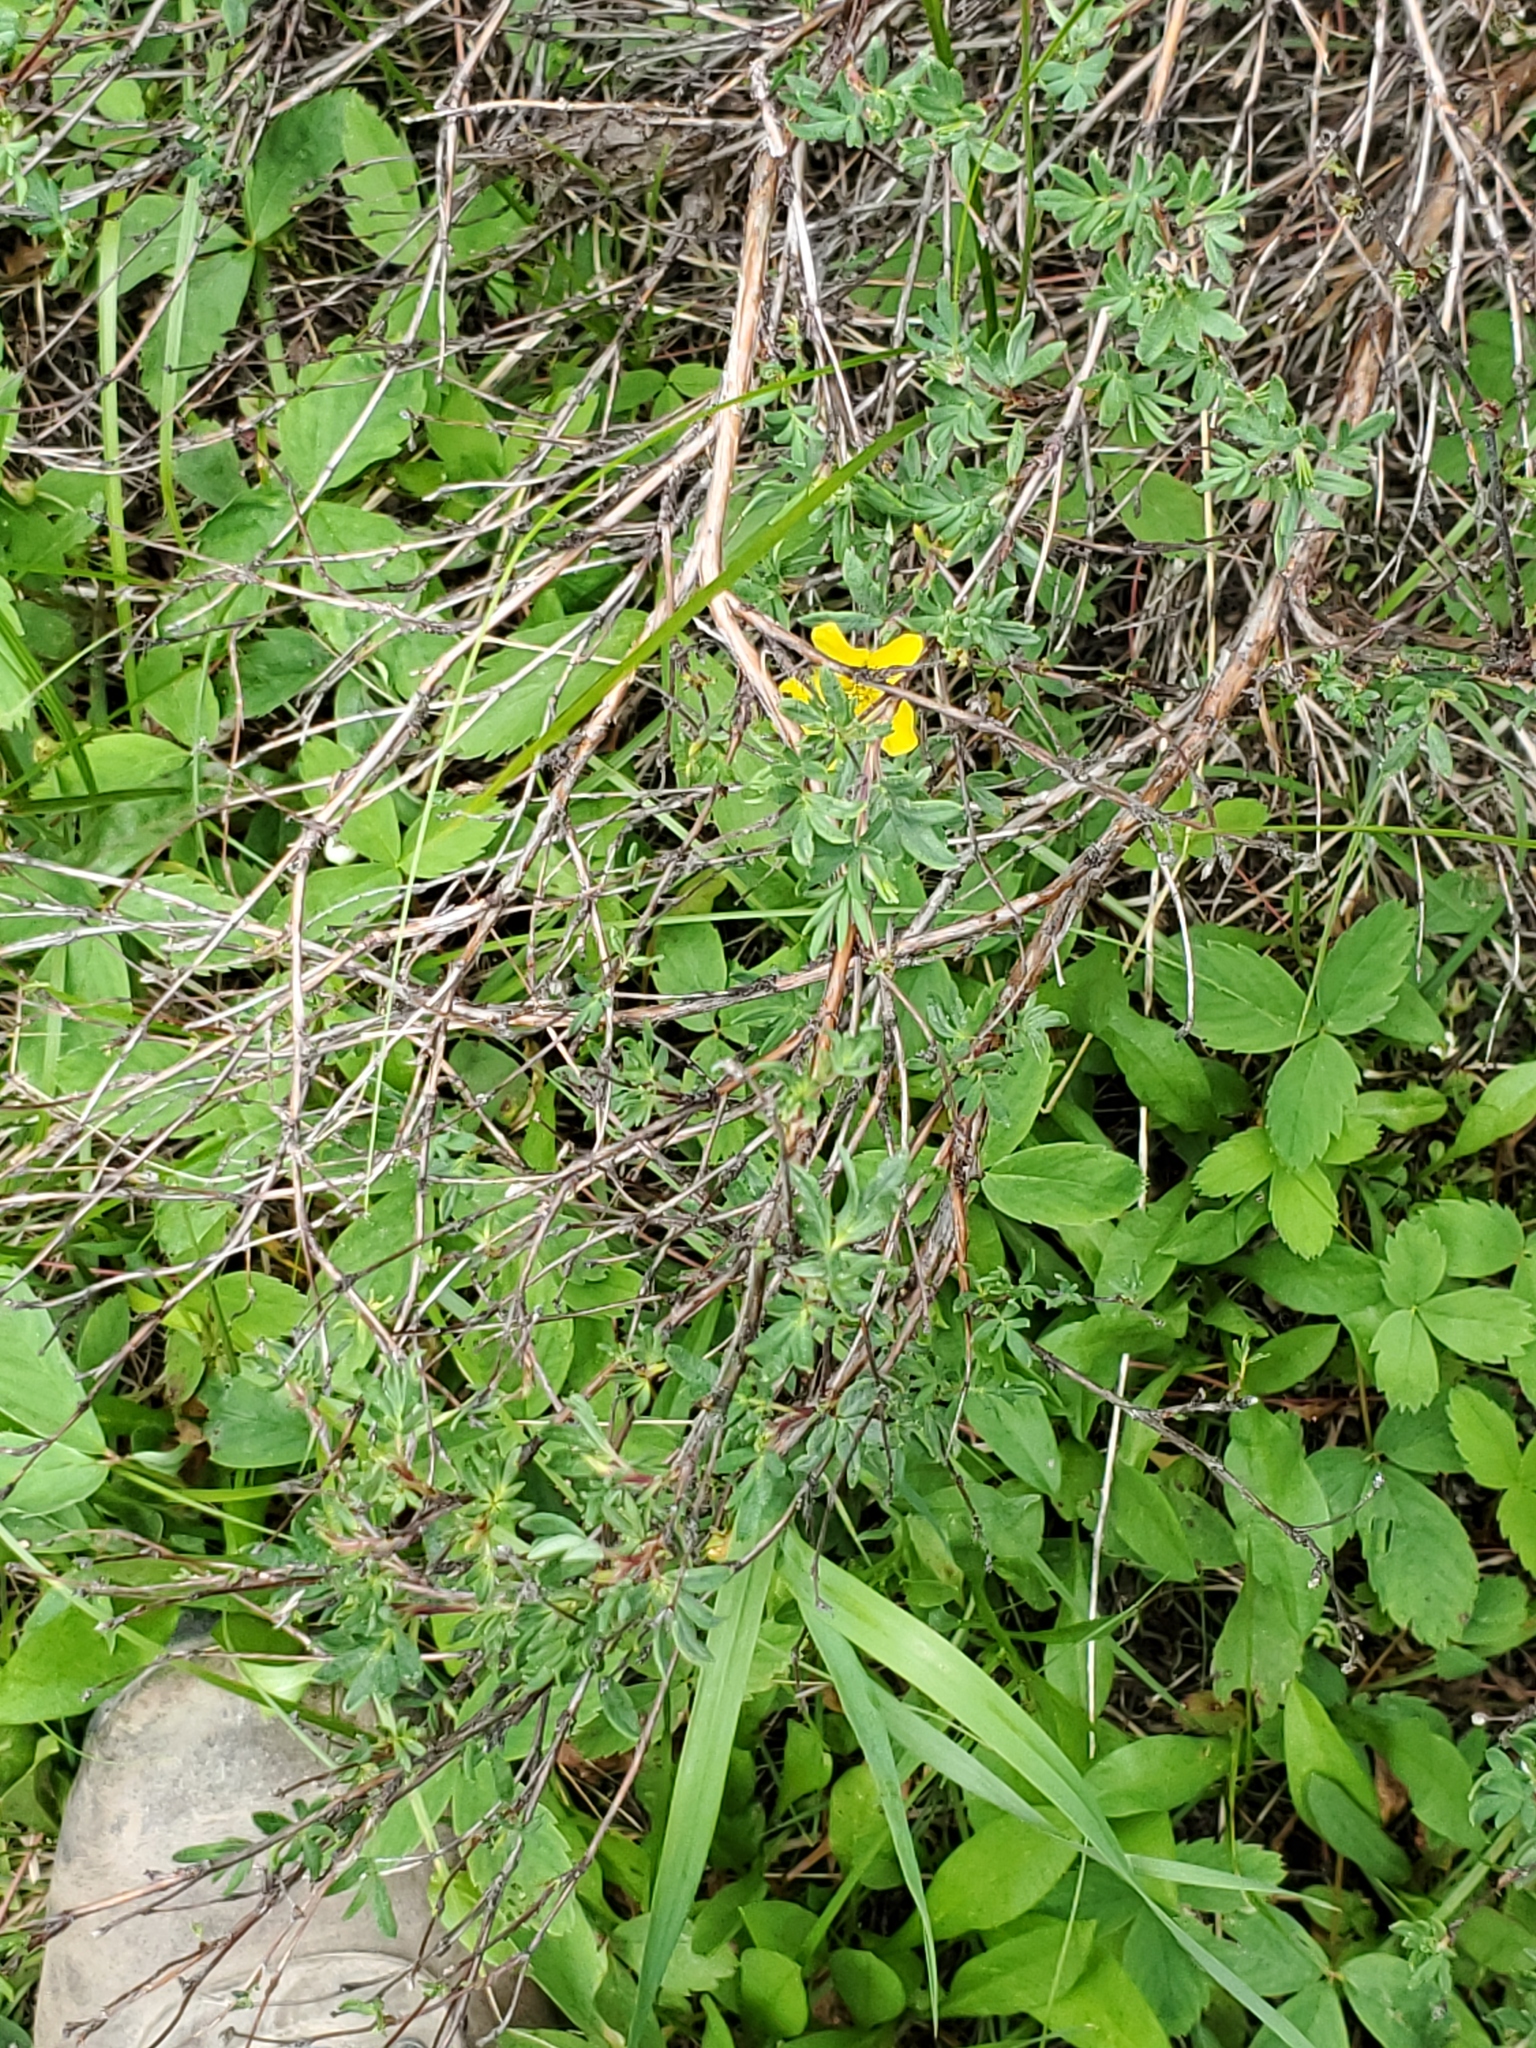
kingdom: Plantae
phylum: Tracheophyta
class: Magnoliopsida
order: Rosales
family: Rosaceae
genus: Dasiphora
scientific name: Dasiphora fruticosa
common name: Shrubby cinquefoil
